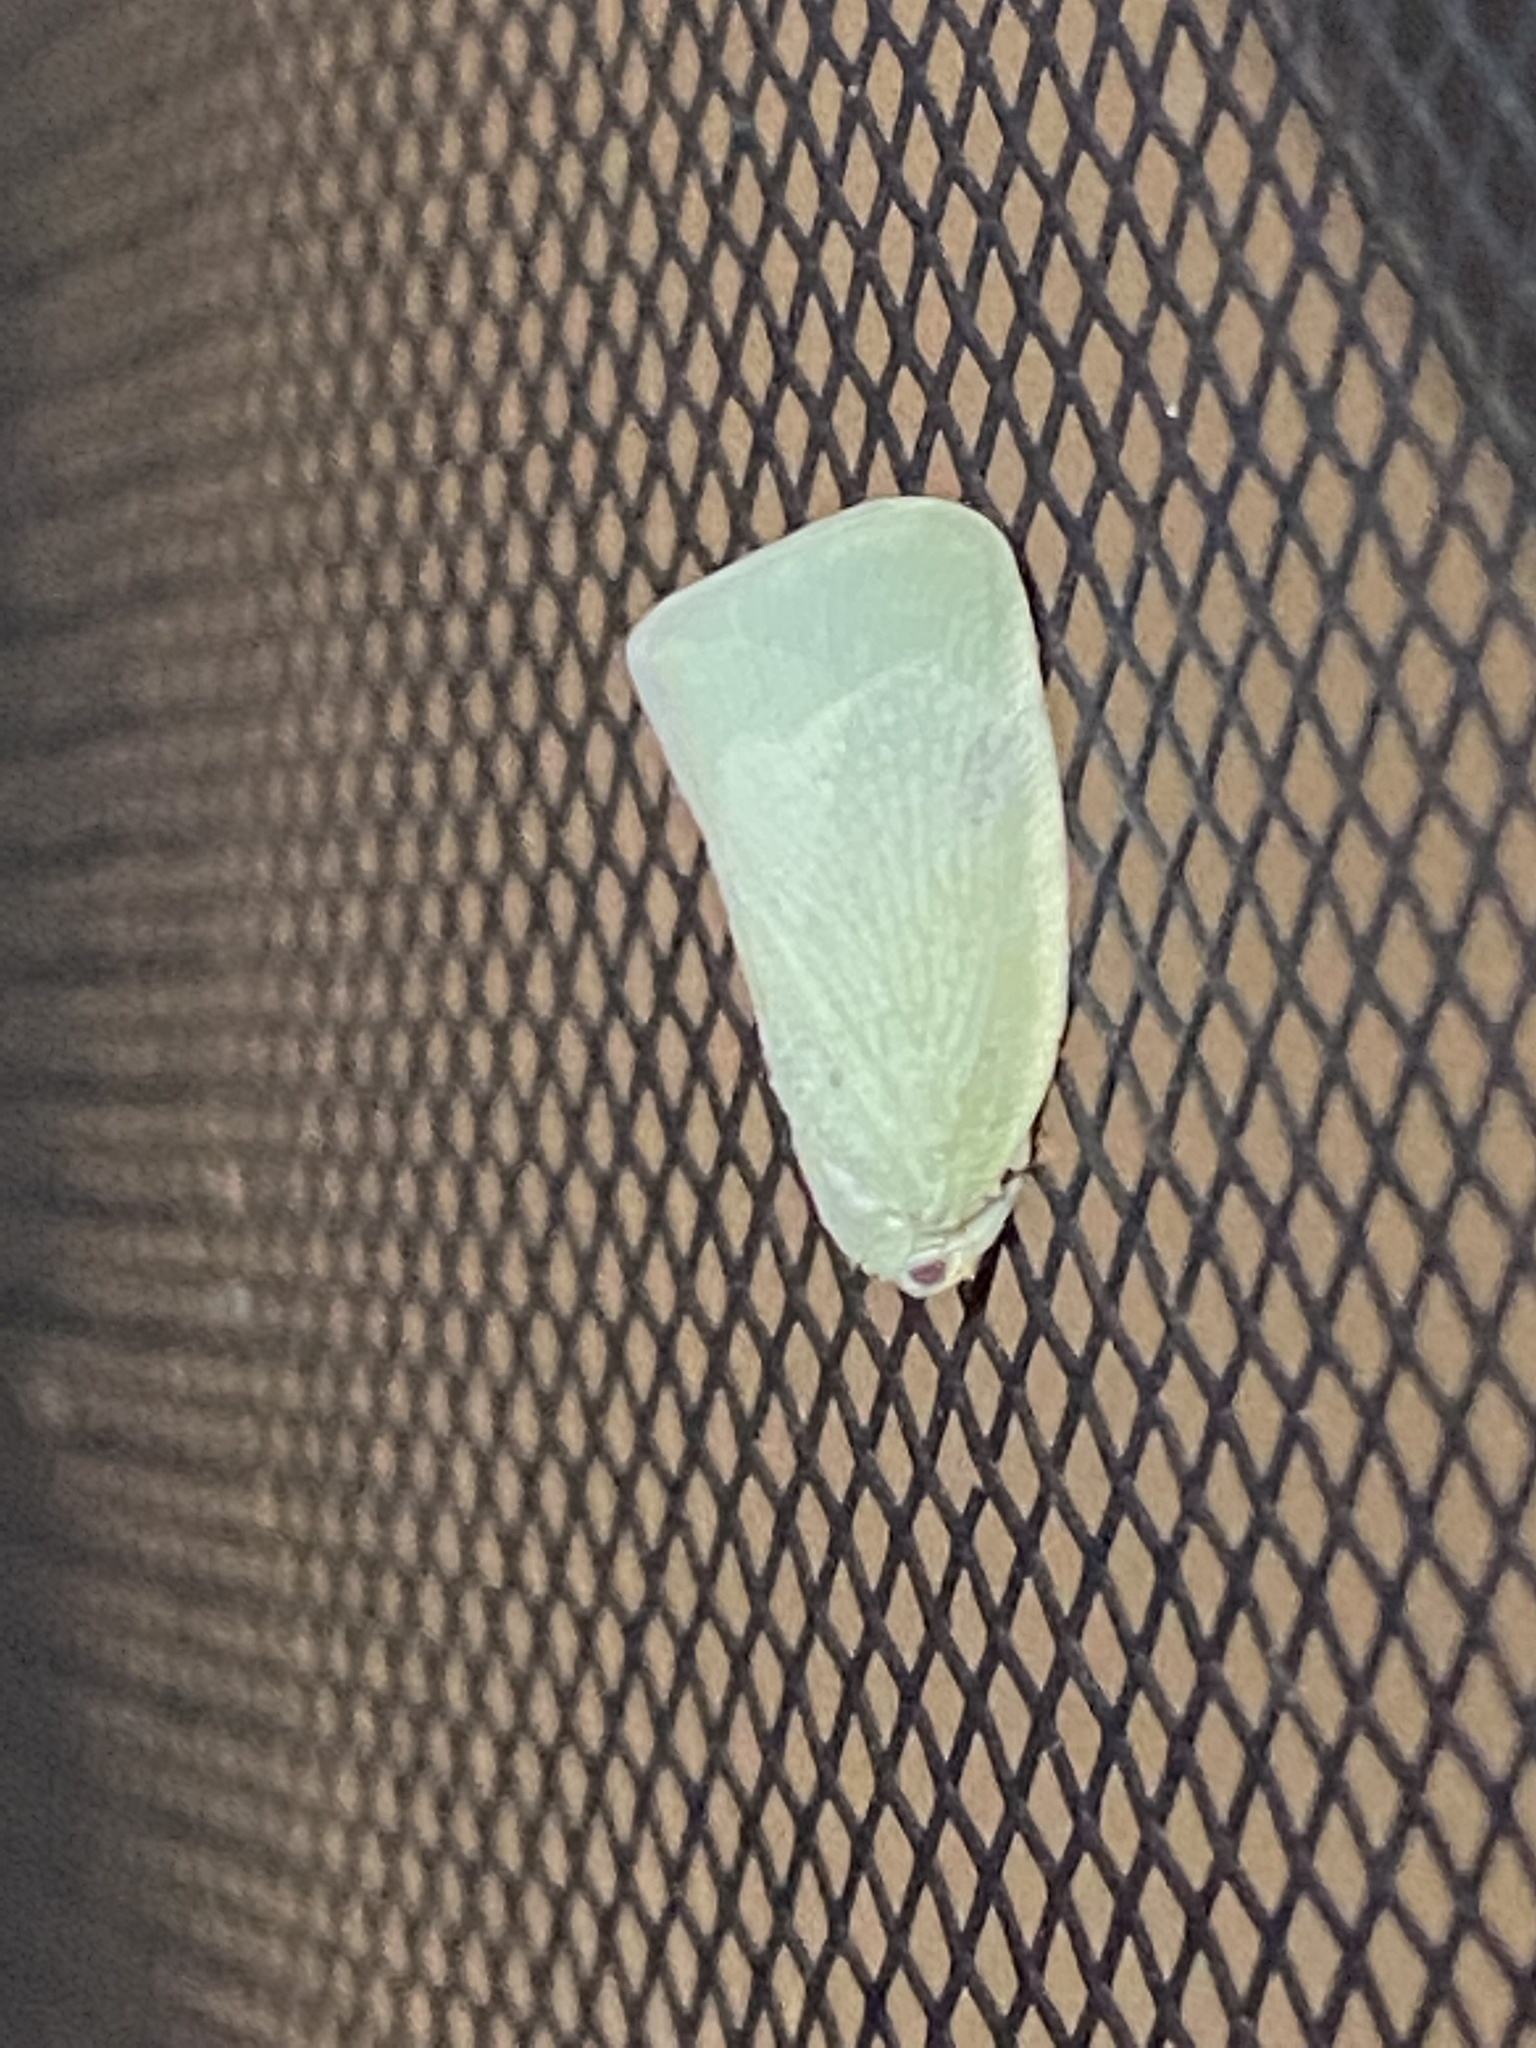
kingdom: Animalia
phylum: Arthropoda
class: Insecta
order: Hemiptera
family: Flatidae
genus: Flatormenis
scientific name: Flatormenis proxima
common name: Northern flatid planthopper
